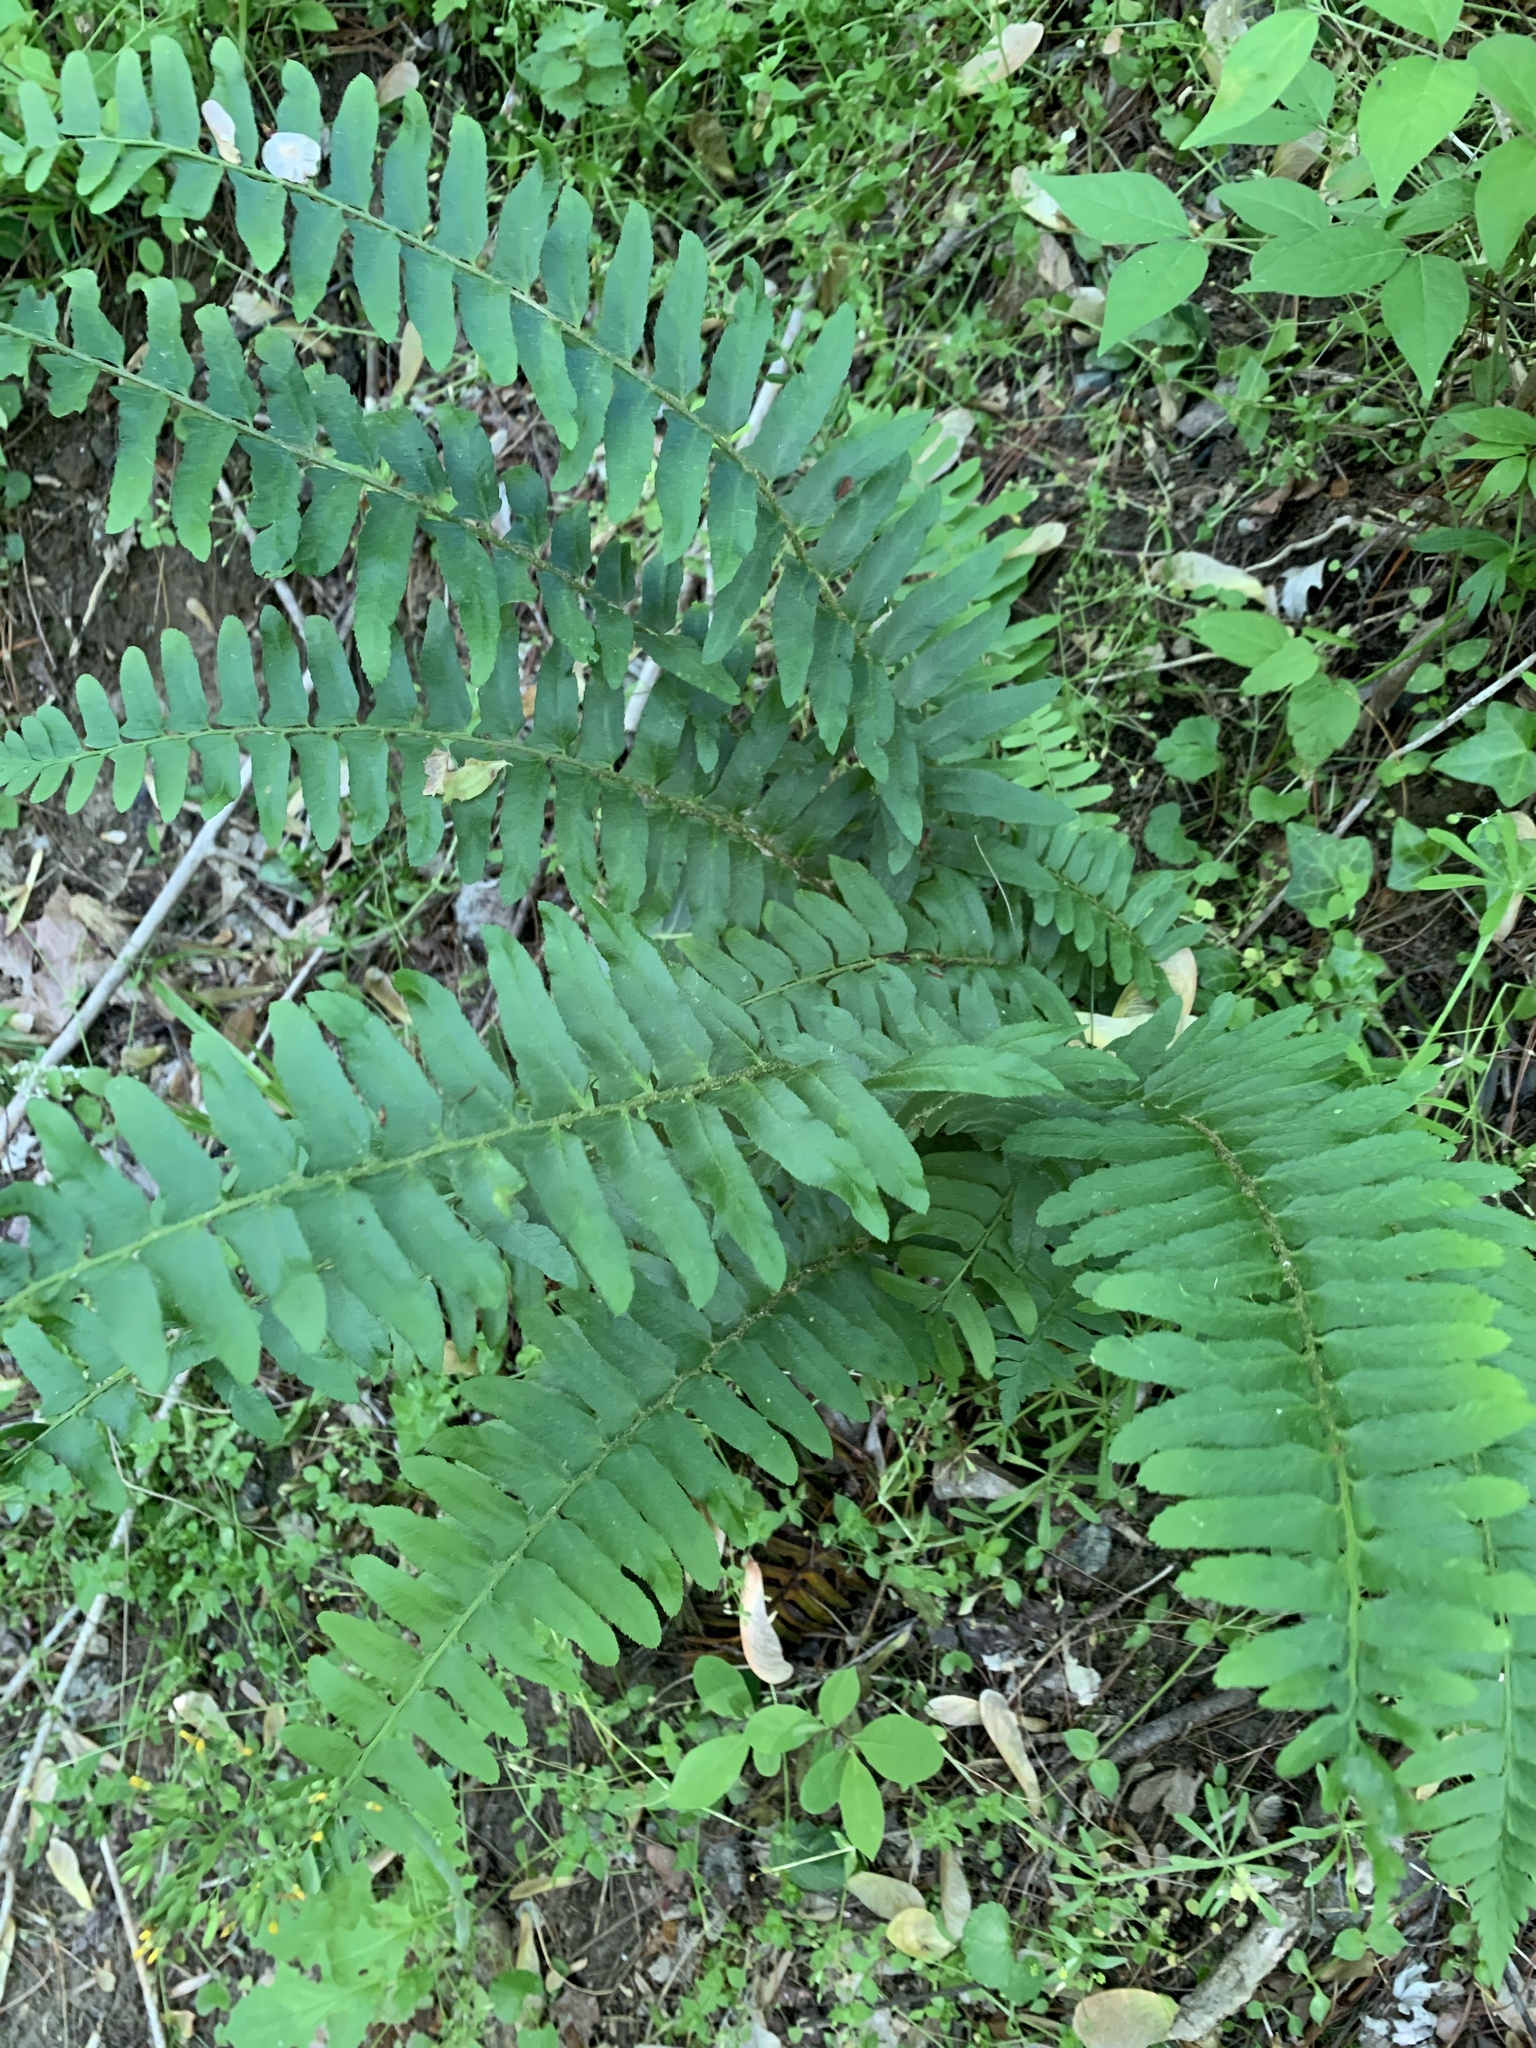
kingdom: Plantae
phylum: Tracheophyta
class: Polypodiopsida
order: Polypodiales
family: Dryopteridaceae
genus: Polystichum
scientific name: Polystichum acrostichoides
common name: Christmas fern
